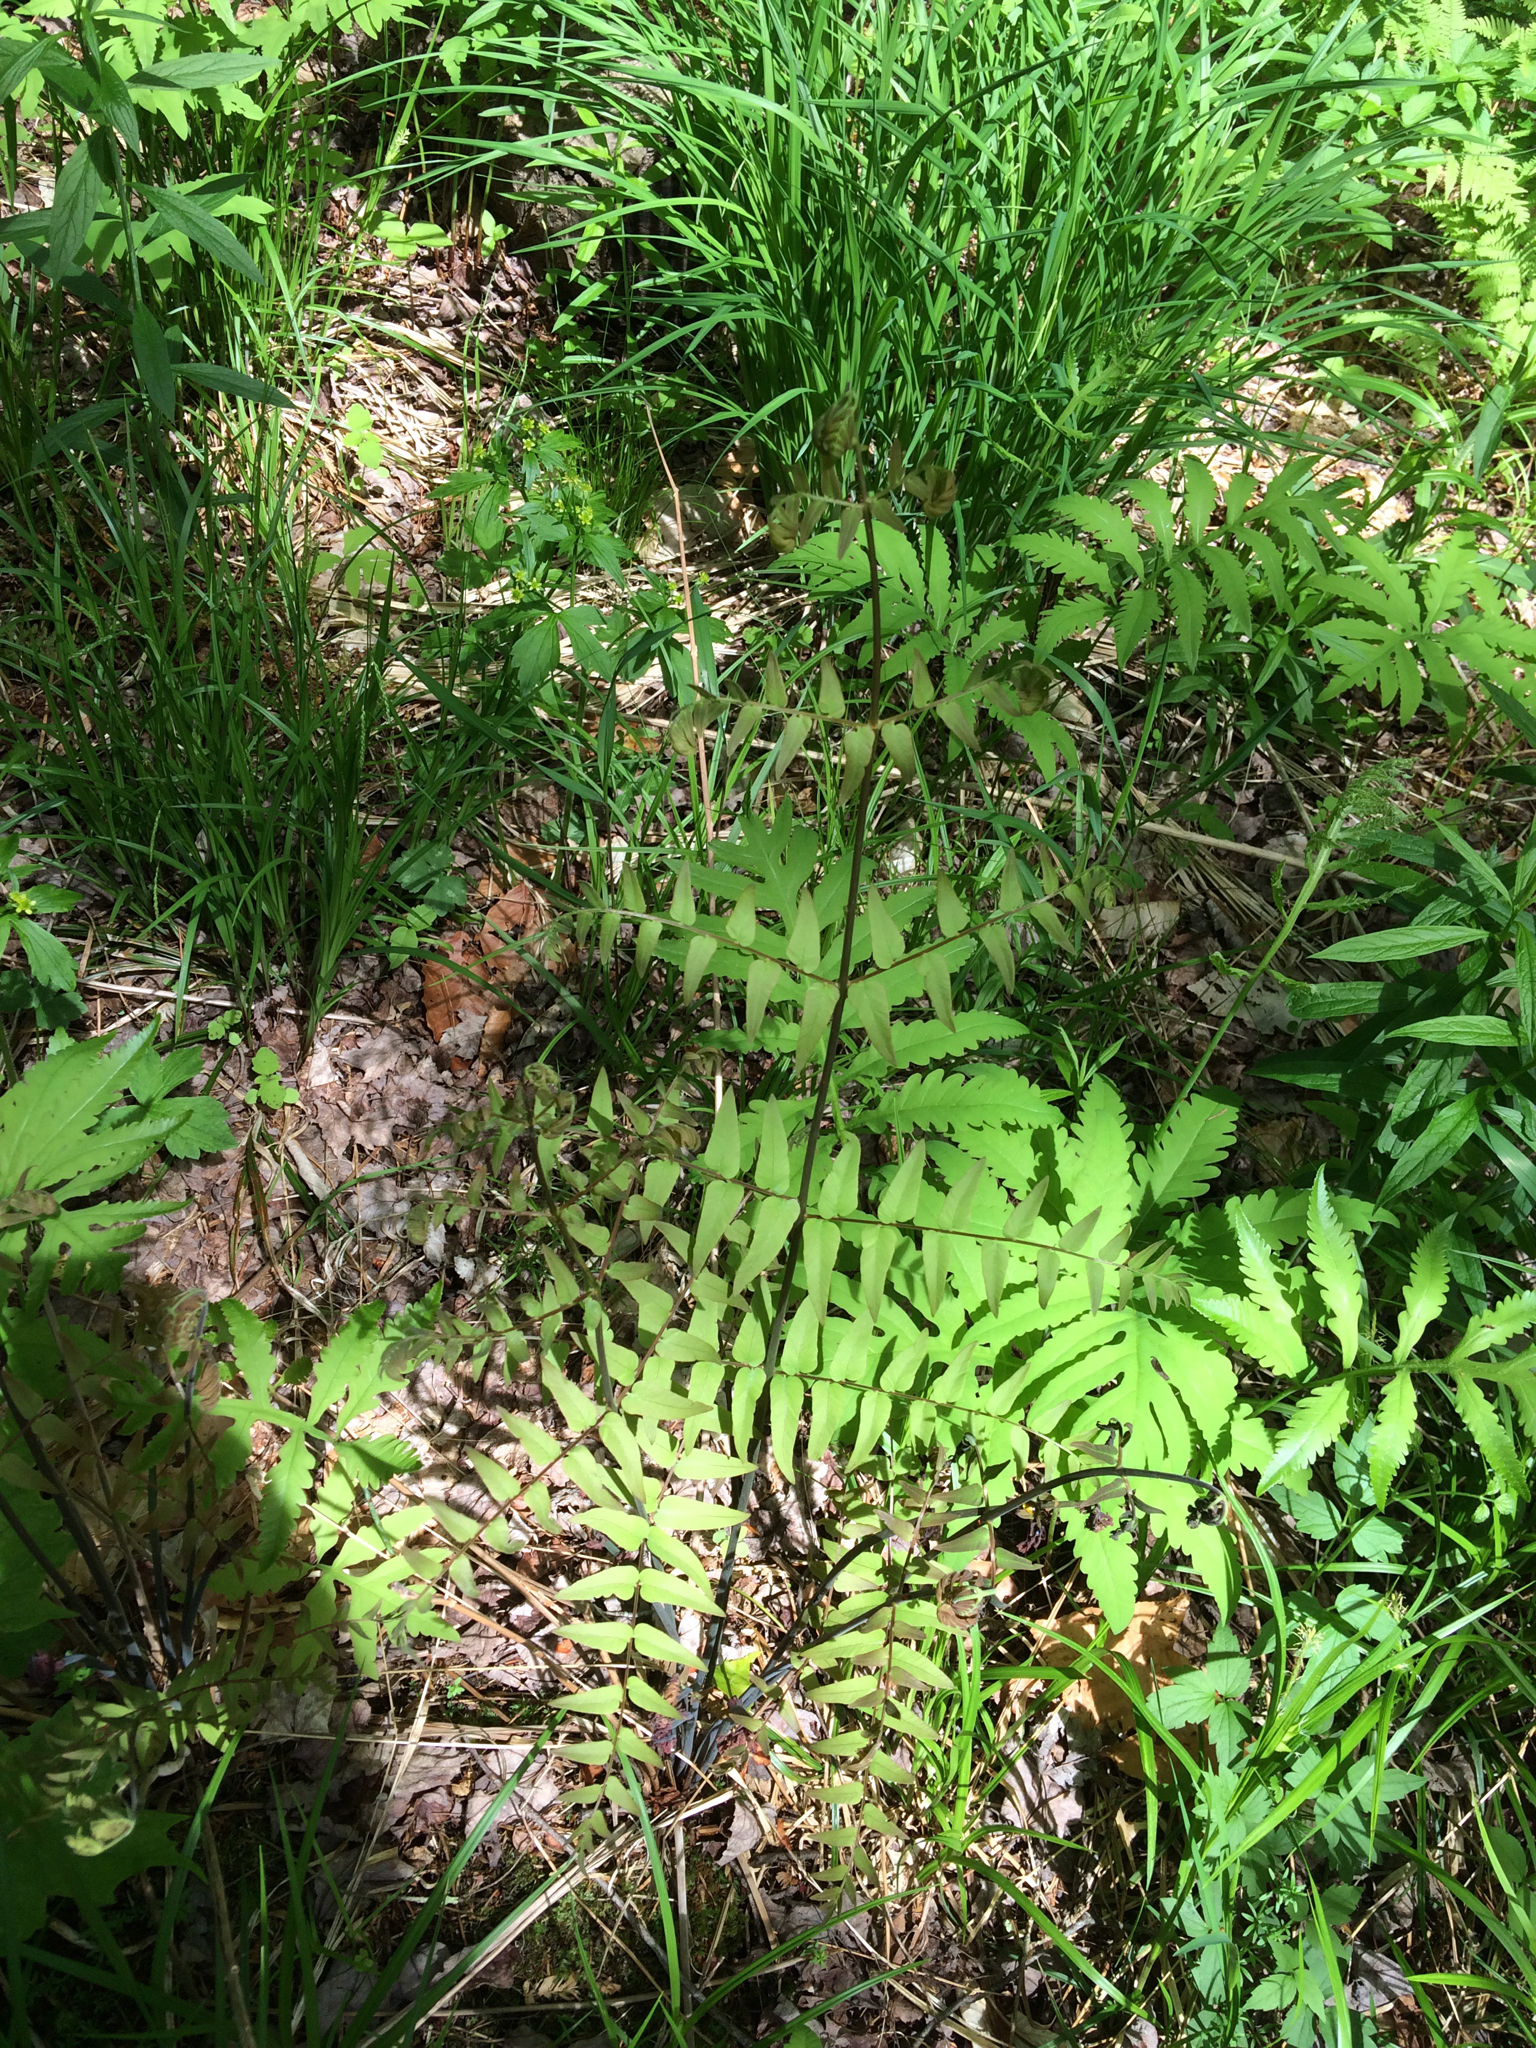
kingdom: Plantae
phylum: Tracheophyta
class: Polypodiopsida
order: Osmundales
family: Osmundaceae
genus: Osmunda
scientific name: Osmunda spectabilis
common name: American royal fern
